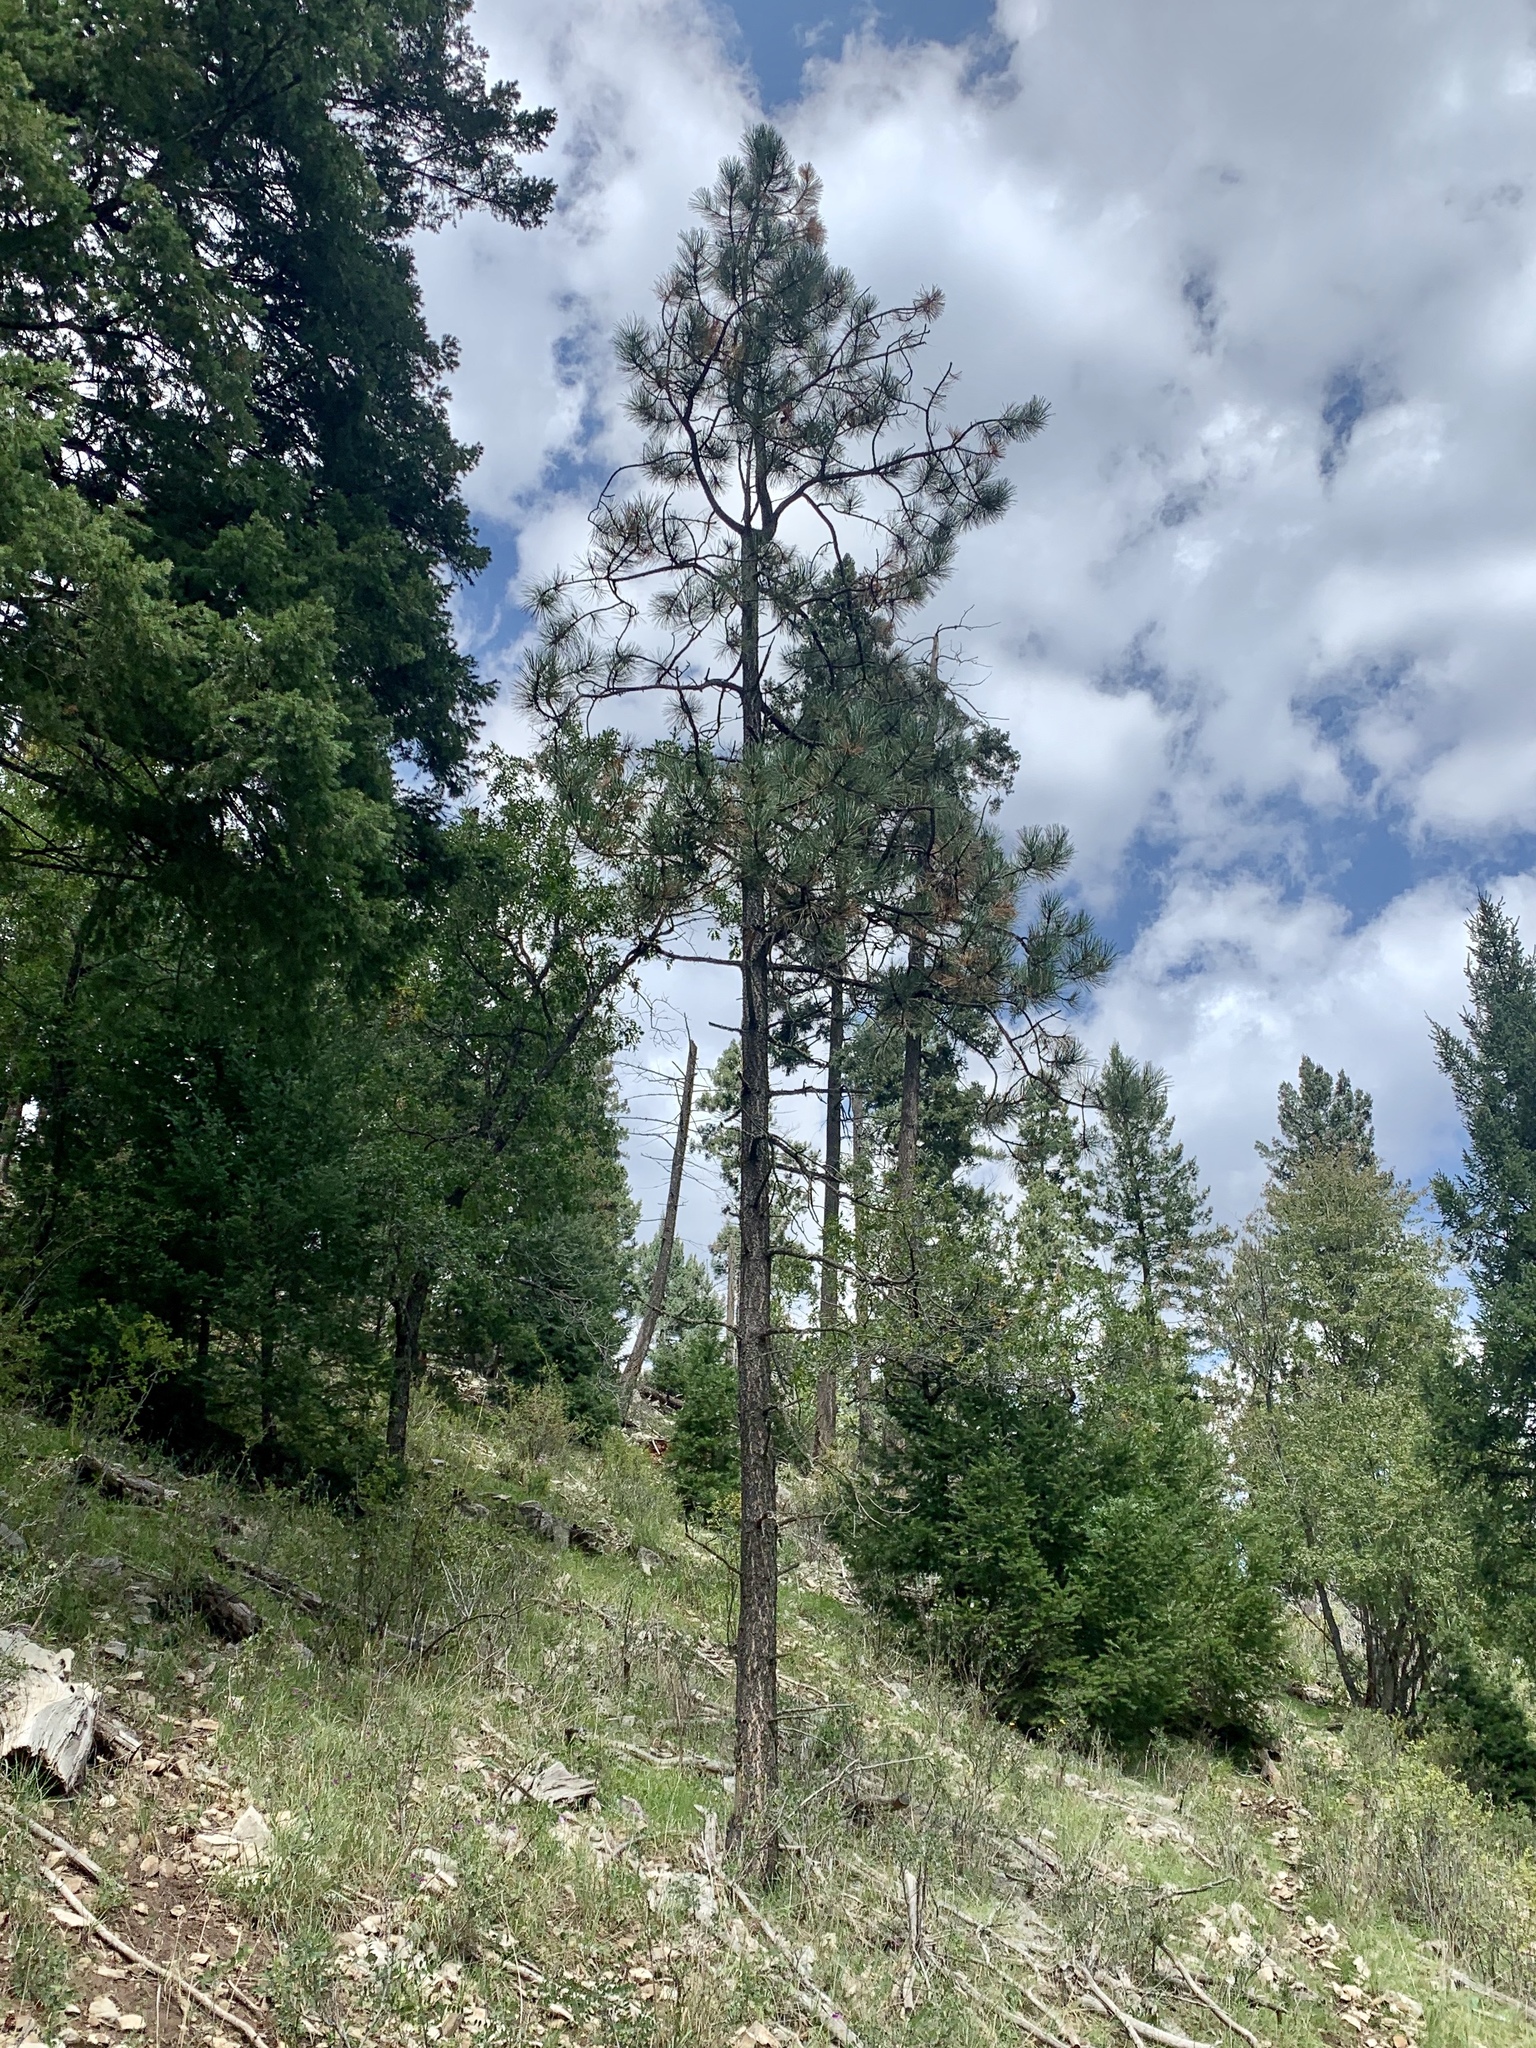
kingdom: Plantae
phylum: Tracheophyta
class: Pinopsida
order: Pinales
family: Pinaceae
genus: Pinus
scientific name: Pinus ponderosa
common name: Western yellow-pine
